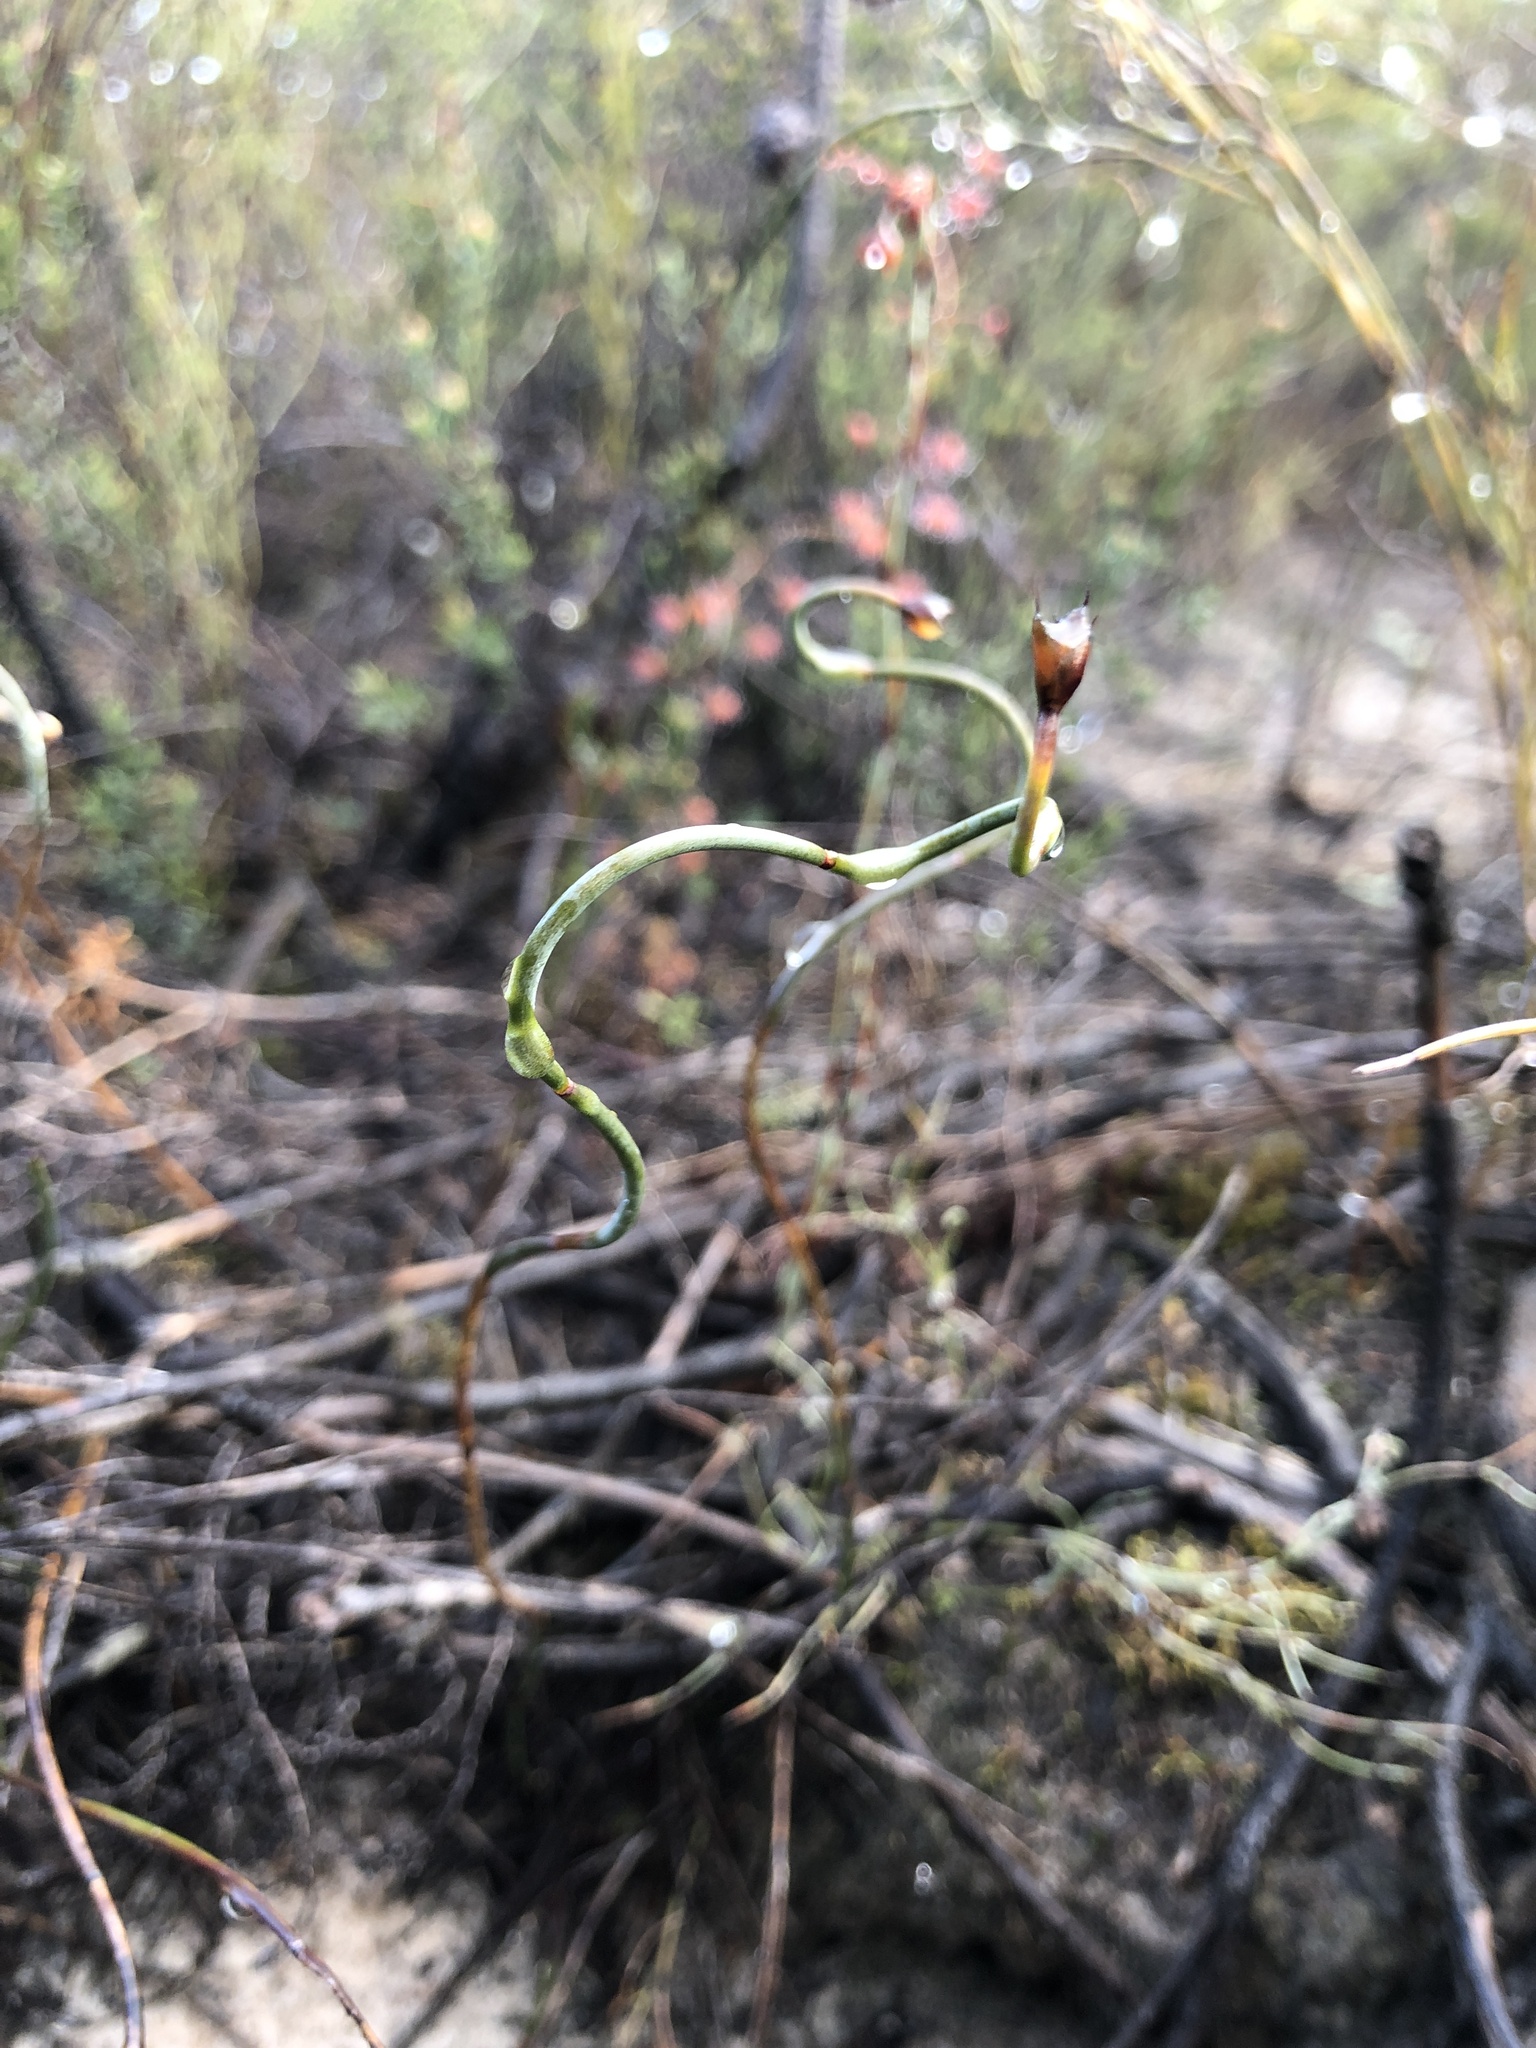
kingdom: Plantae
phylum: Tracheophyta
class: Liliopsida
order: Poales
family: Restionaceae
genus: Lepidobolus
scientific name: Lepidobolus drapetocoleus
